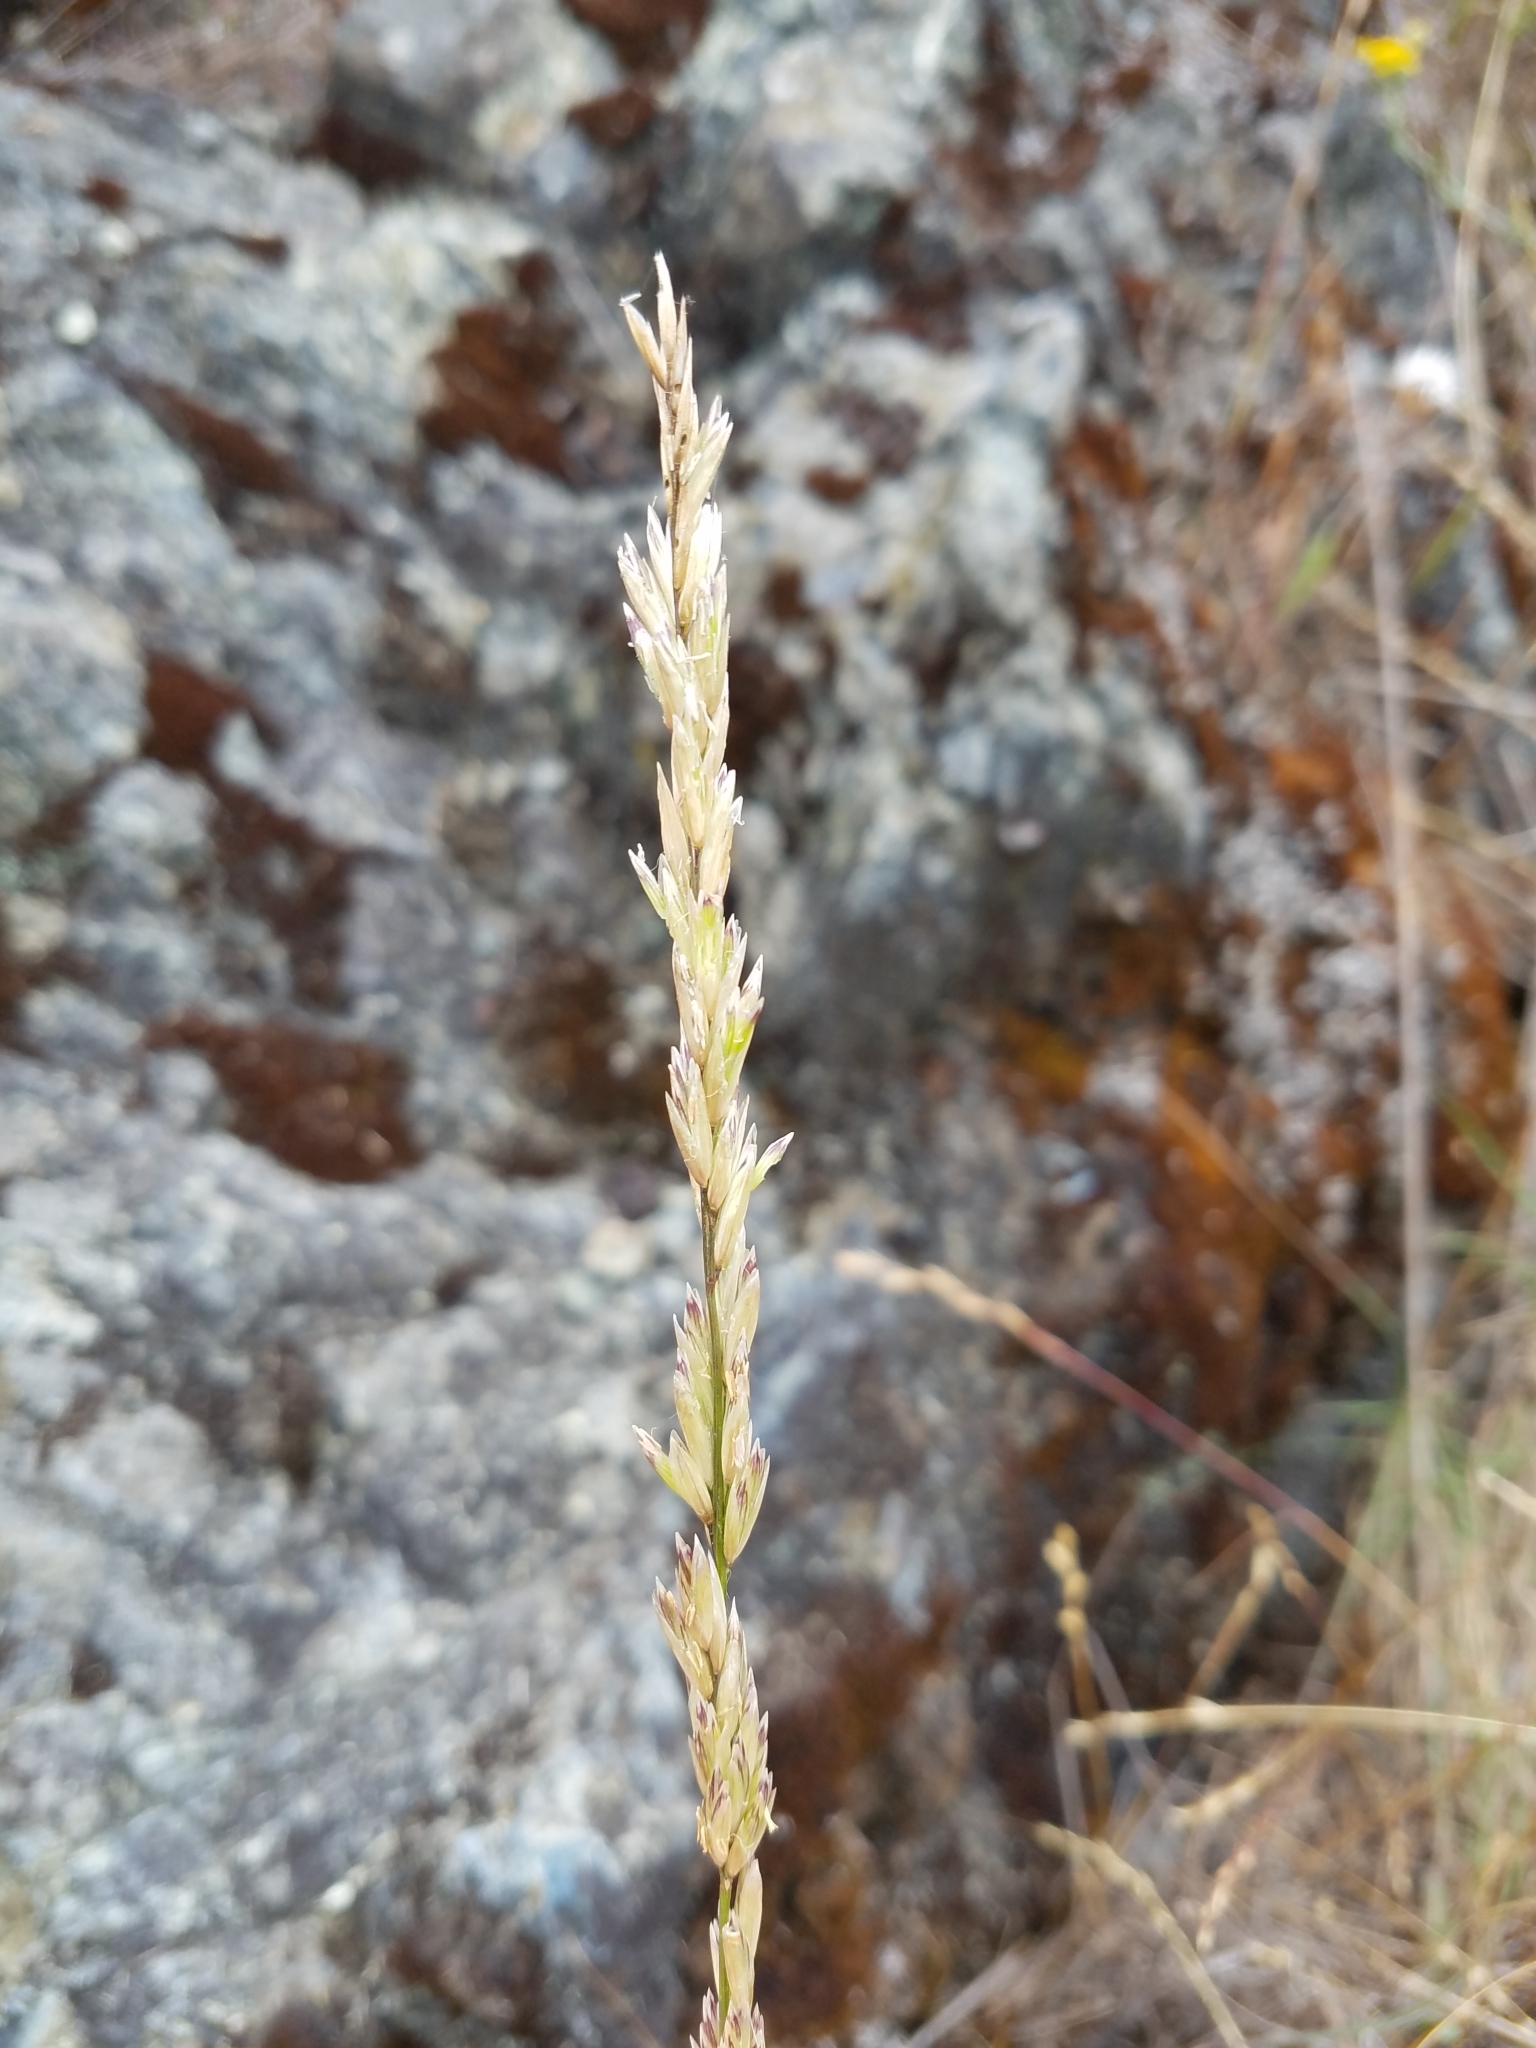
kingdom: Plantae
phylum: Tracheophyta
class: Liliopsida
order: Poales
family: Poaceae
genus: Melica
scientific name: Melica californica
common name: California melic
